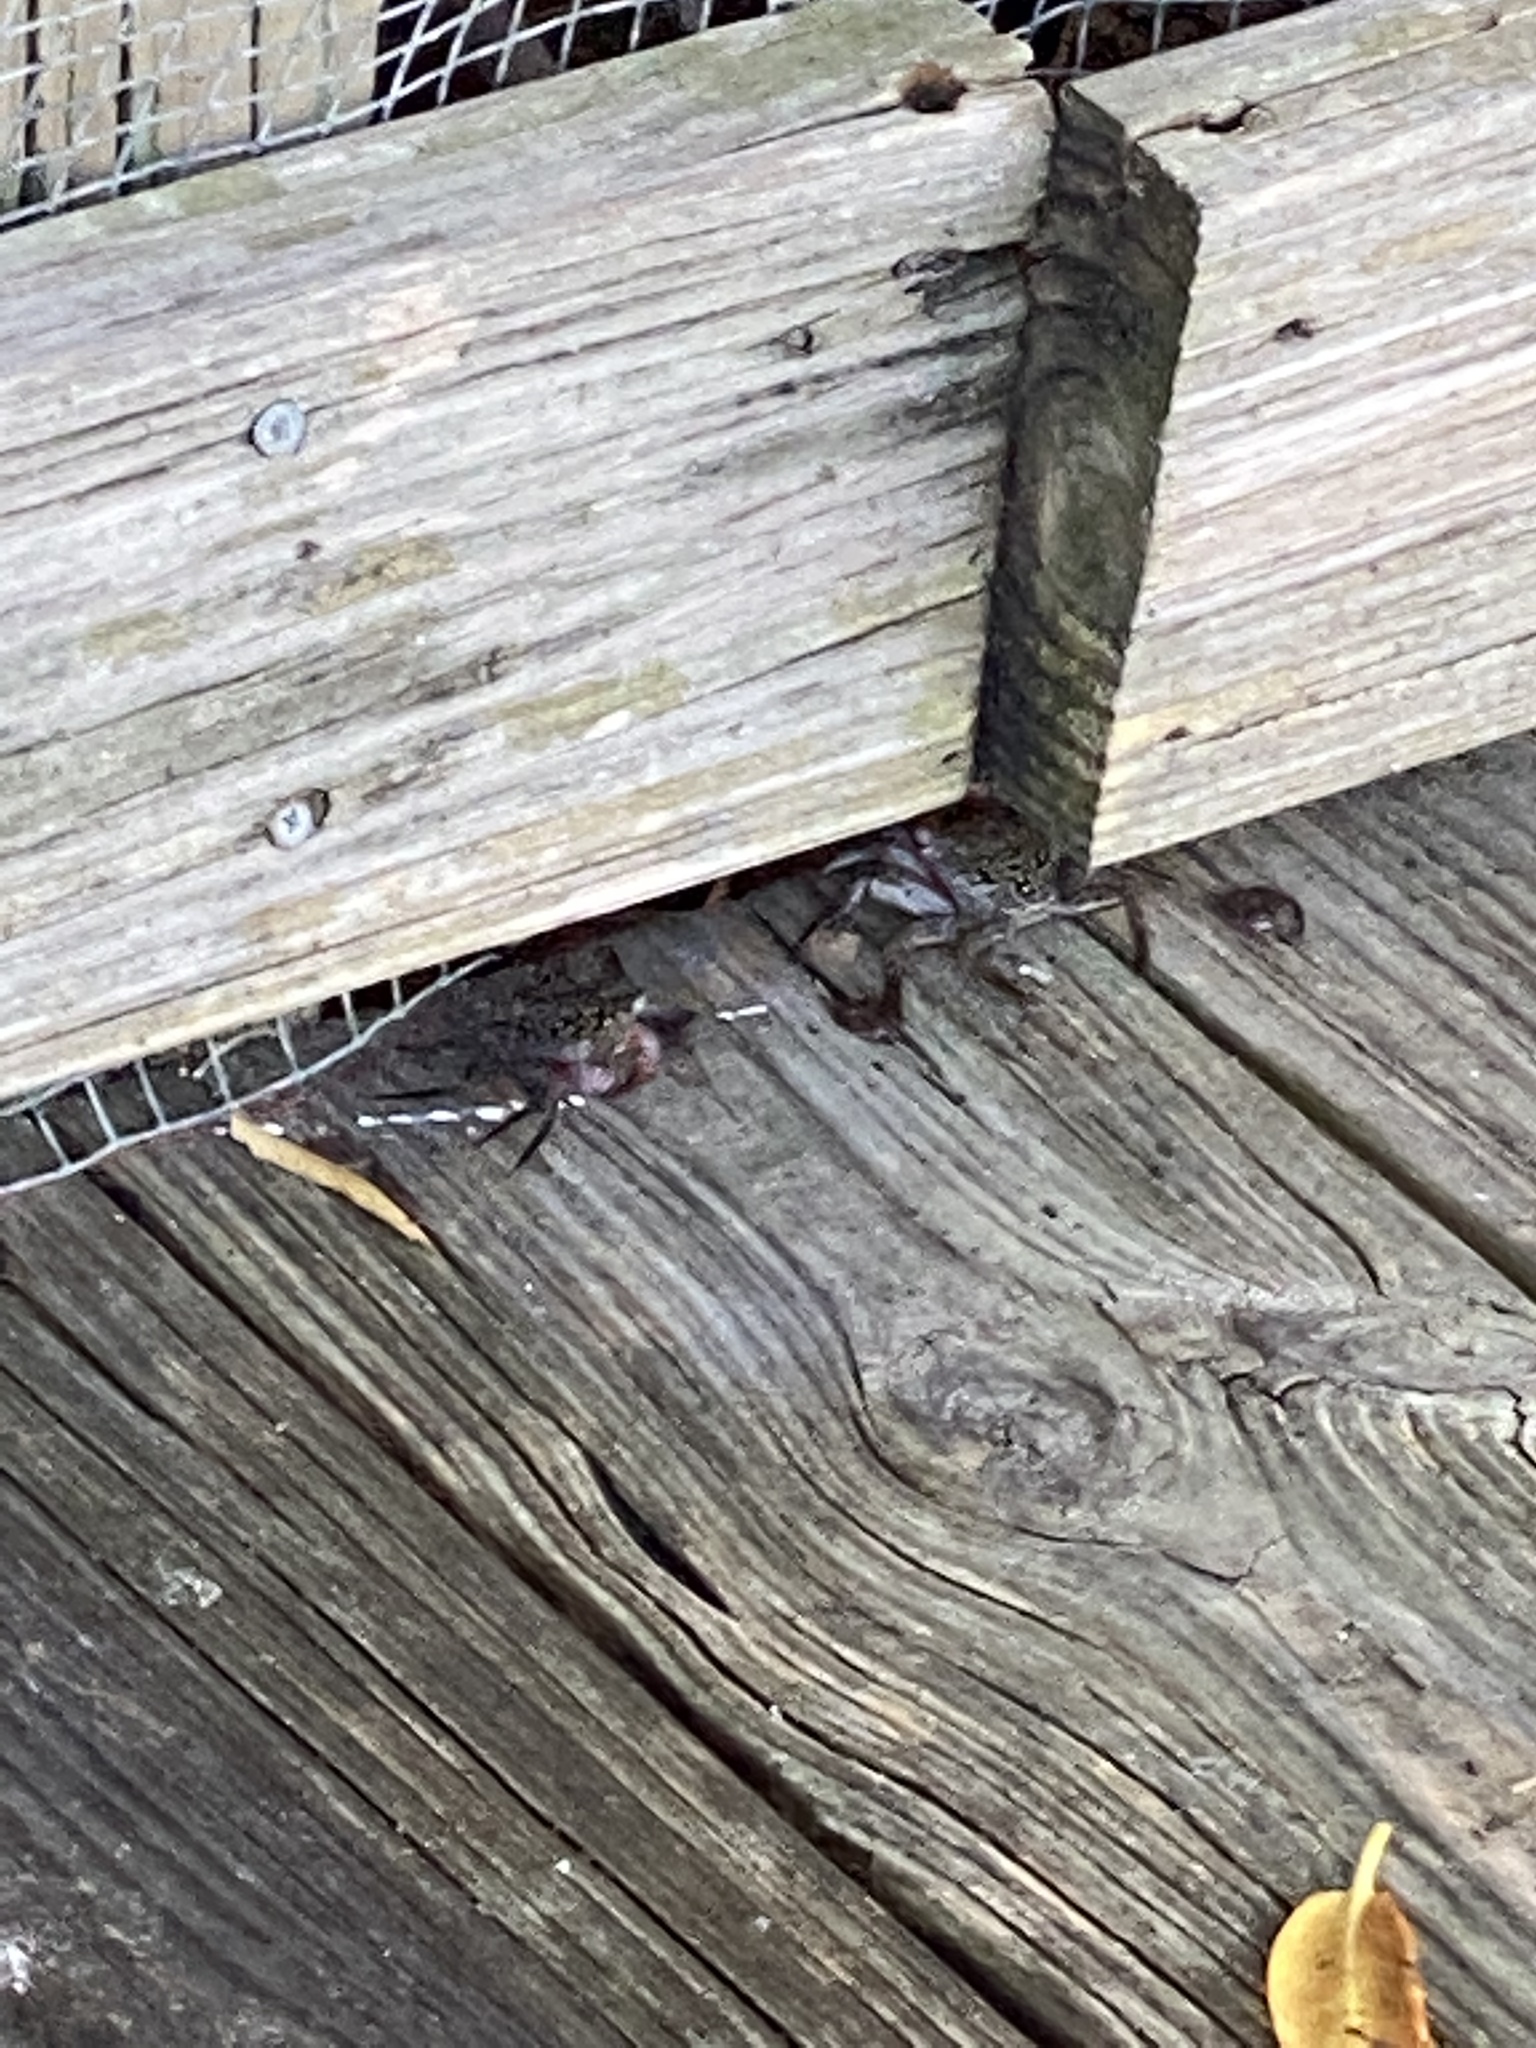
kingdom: Animalia
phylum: Arthropoda
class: Malacostraca
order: Decapoda
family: Sesarmidae
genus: Aratus
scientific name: Aratus pisonii
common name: Mangrove crab
